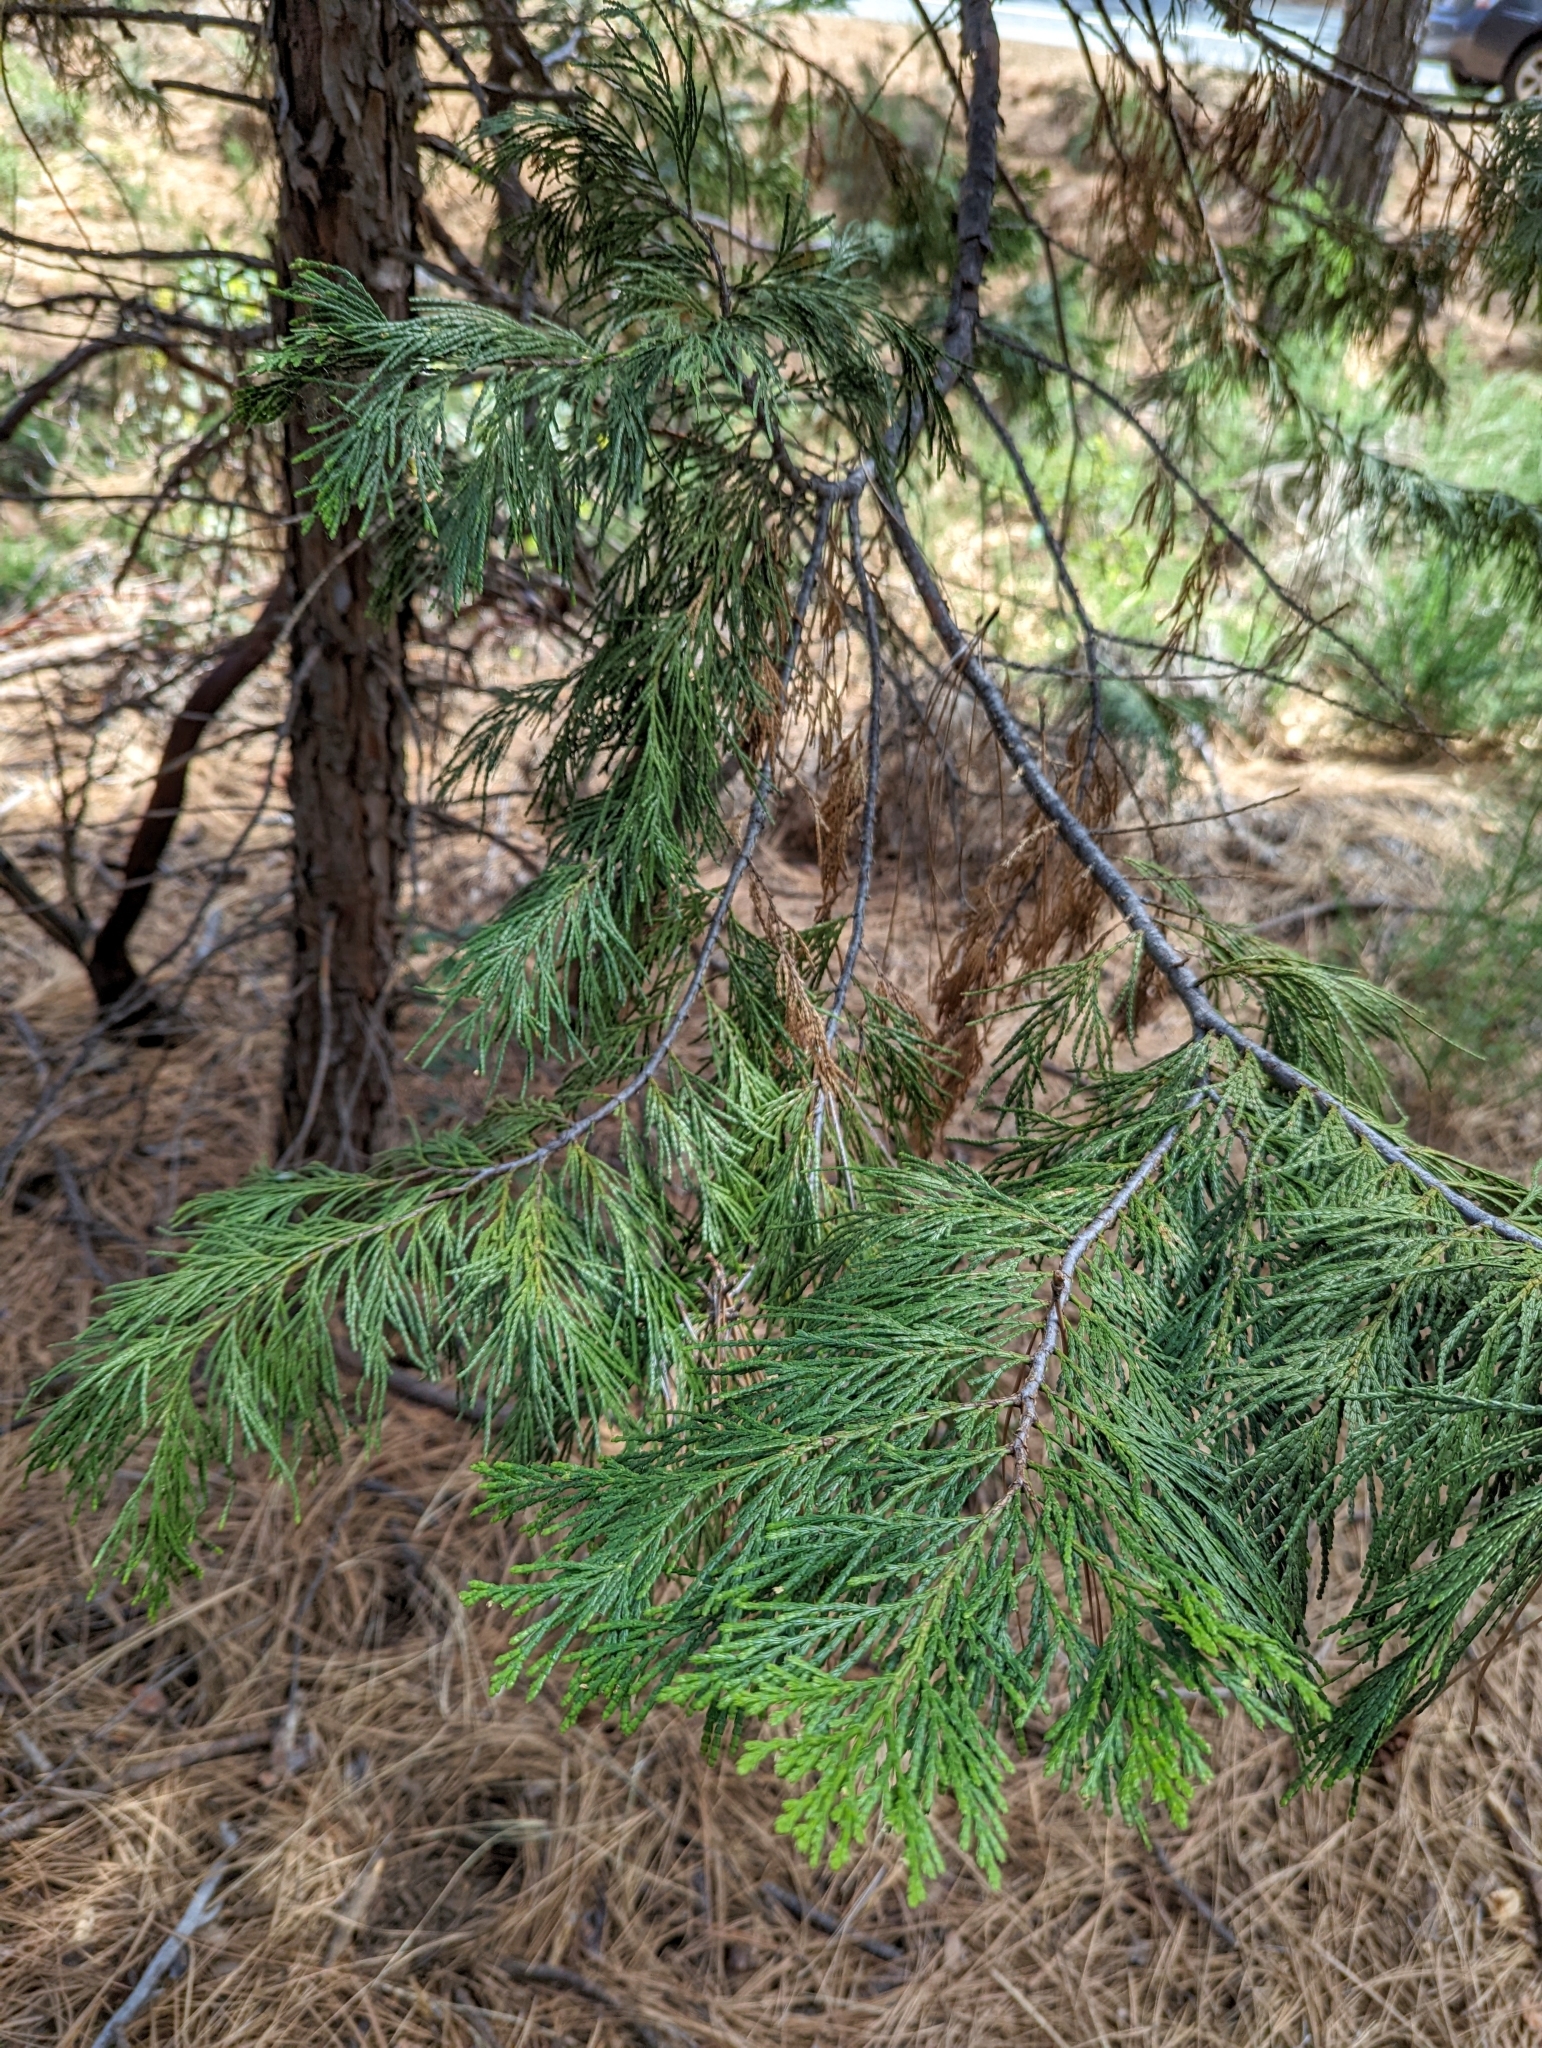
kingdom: Plantae
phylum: Tracheophyta
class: Pinopsida
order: Pinales
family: Cupressaceae
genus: Calocedrus
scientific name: Calocedrus decurrens
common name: Californian incense-cedar
